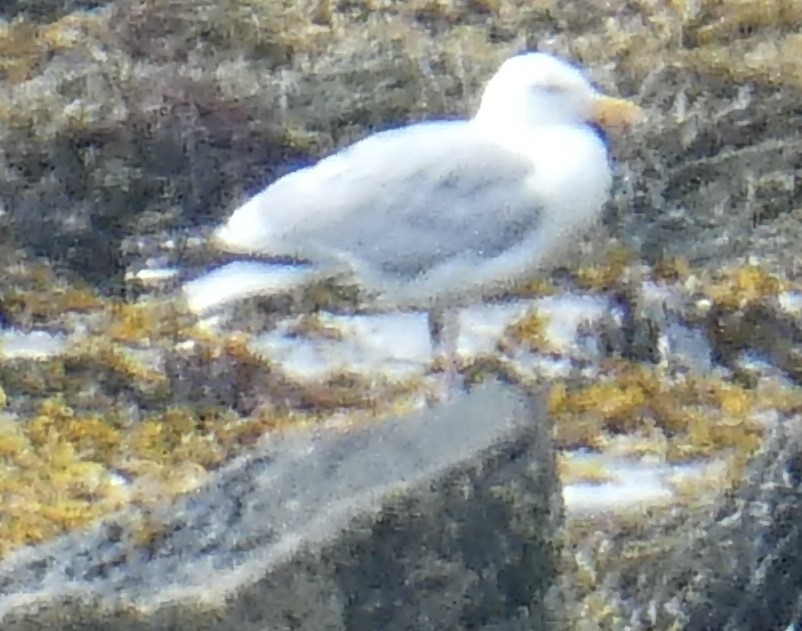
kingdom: Animalia
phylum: Chordata
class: Aves
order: Charadriiformes
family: Laridae
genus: Larus
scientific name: Larus argentatus
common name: Herring gull
